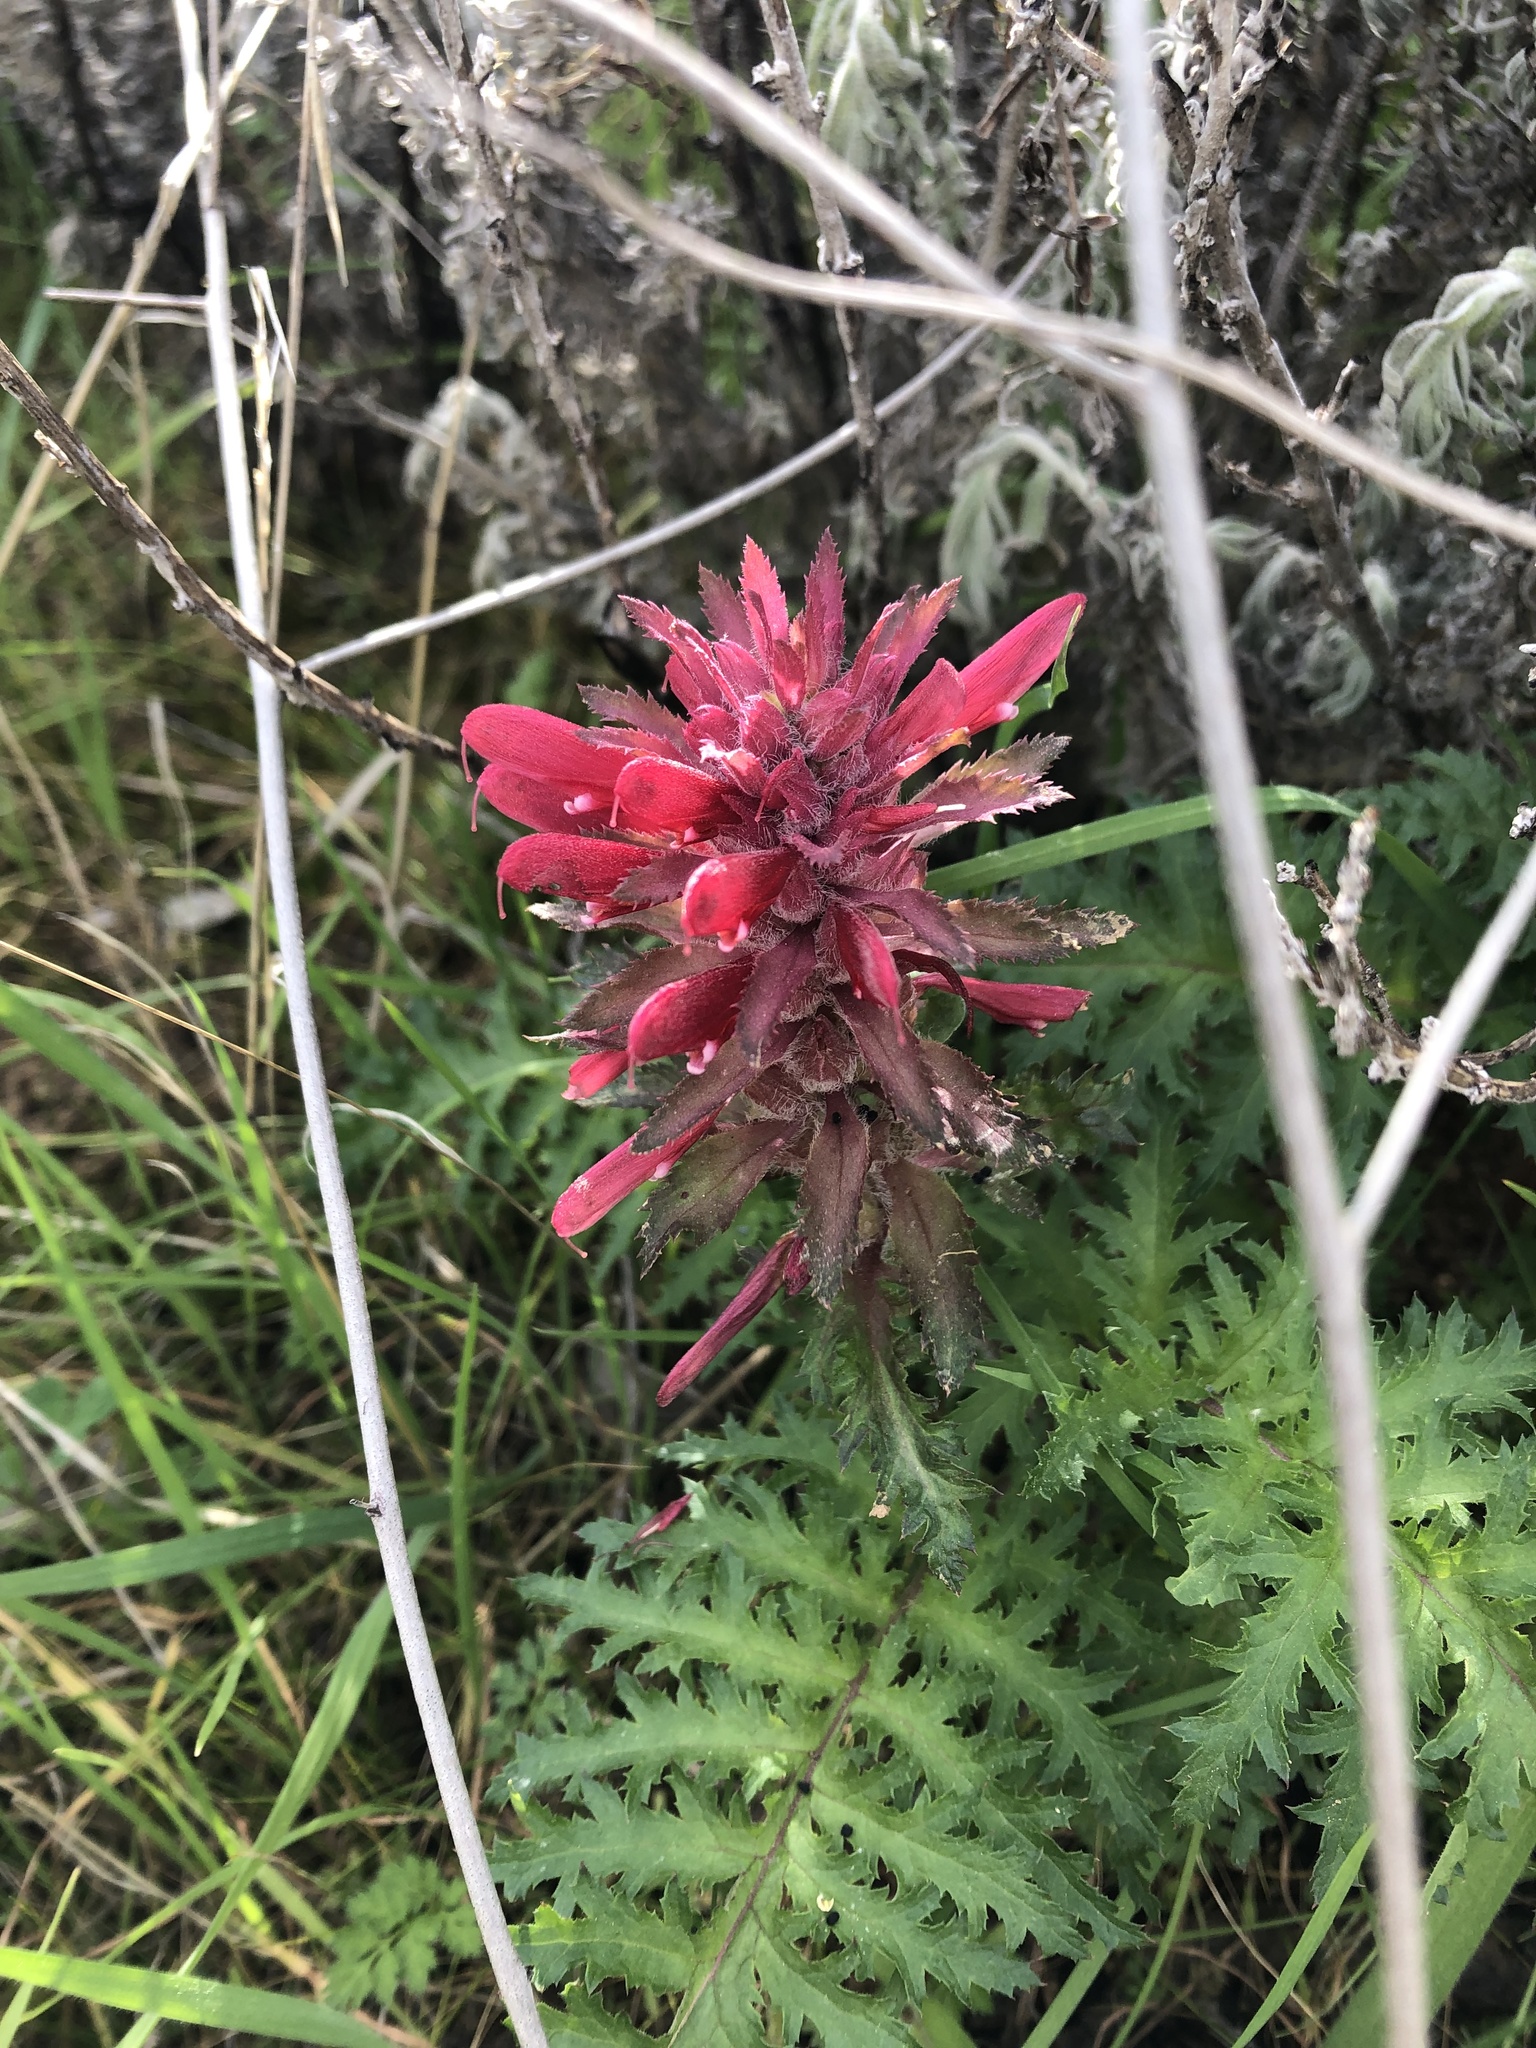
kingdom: Plantae
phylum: Tracheophyta
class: Magnoliopsida
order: Lamiales
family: Orobanchaceae
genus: Pedicularis
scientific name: Pedicularis densiflora
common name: Indian warrior
